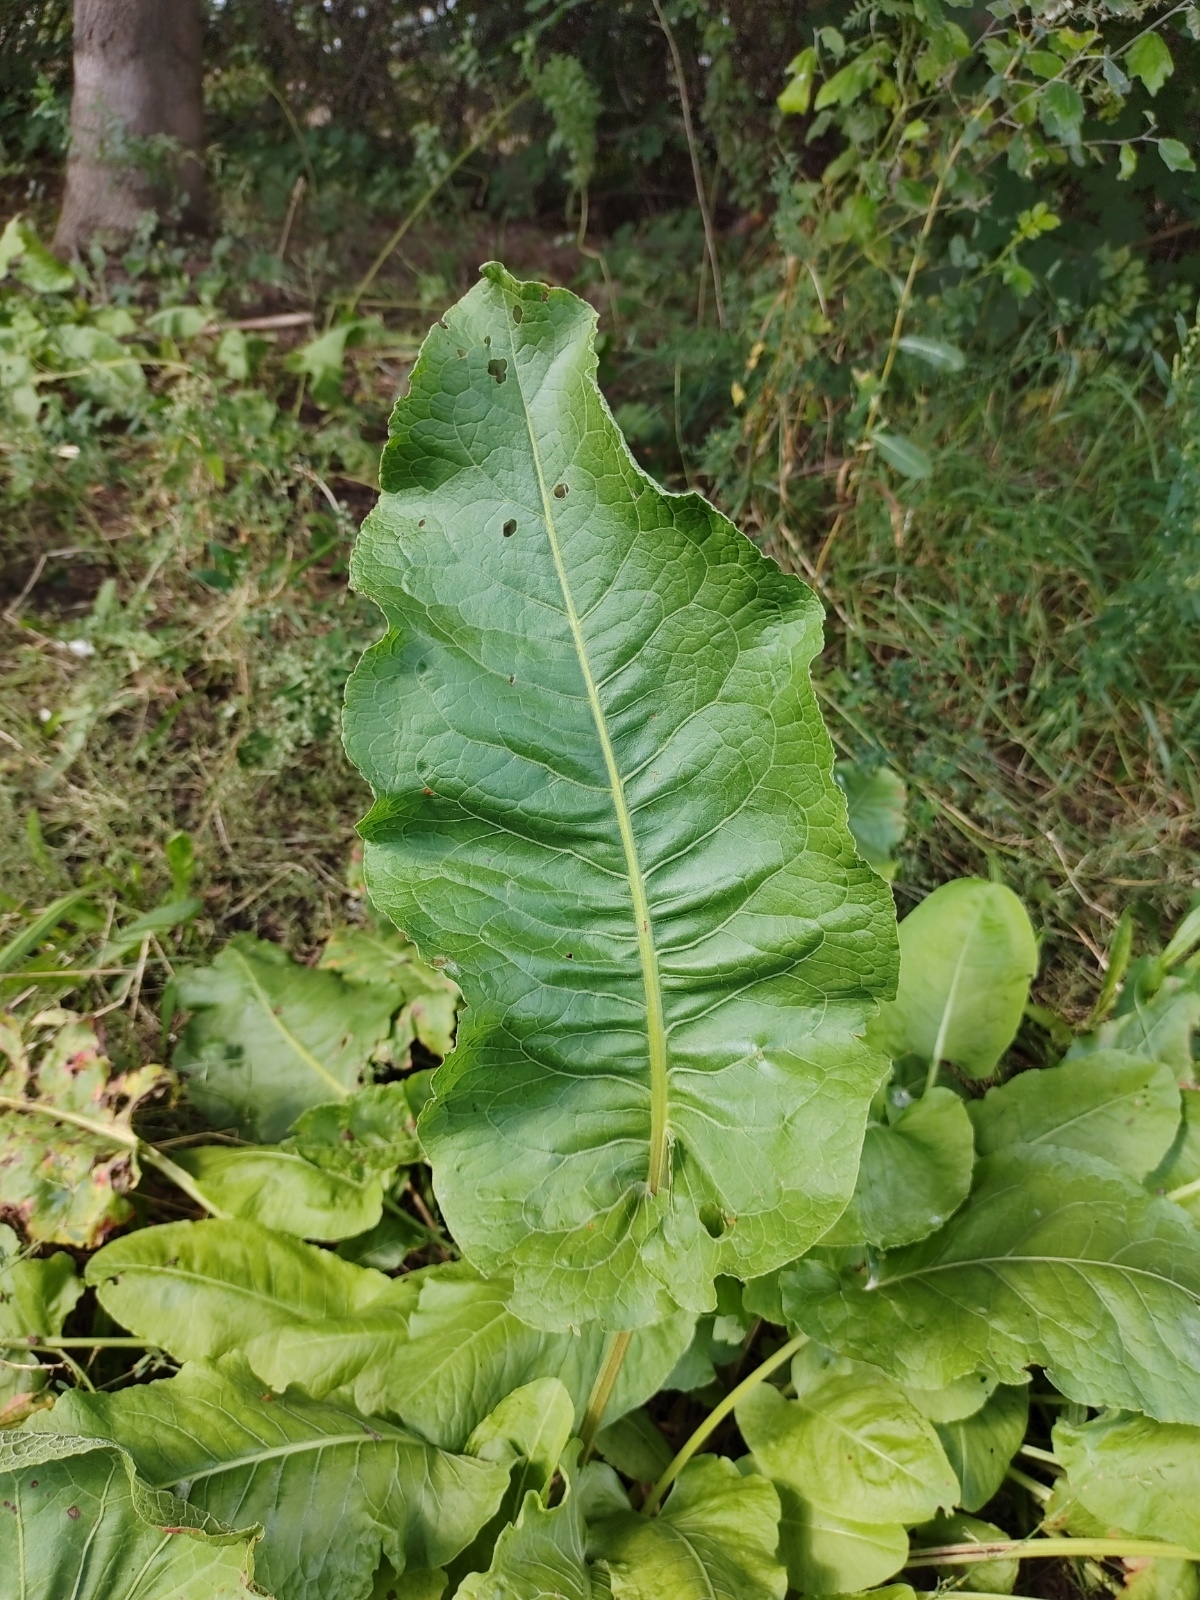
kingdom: Plantae
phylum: Tracheophyta
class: Magnoliopsida
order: Caryophyllales
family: Polygonaceae
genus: Rumex
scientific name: Rumex confertus
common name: Russian dock
